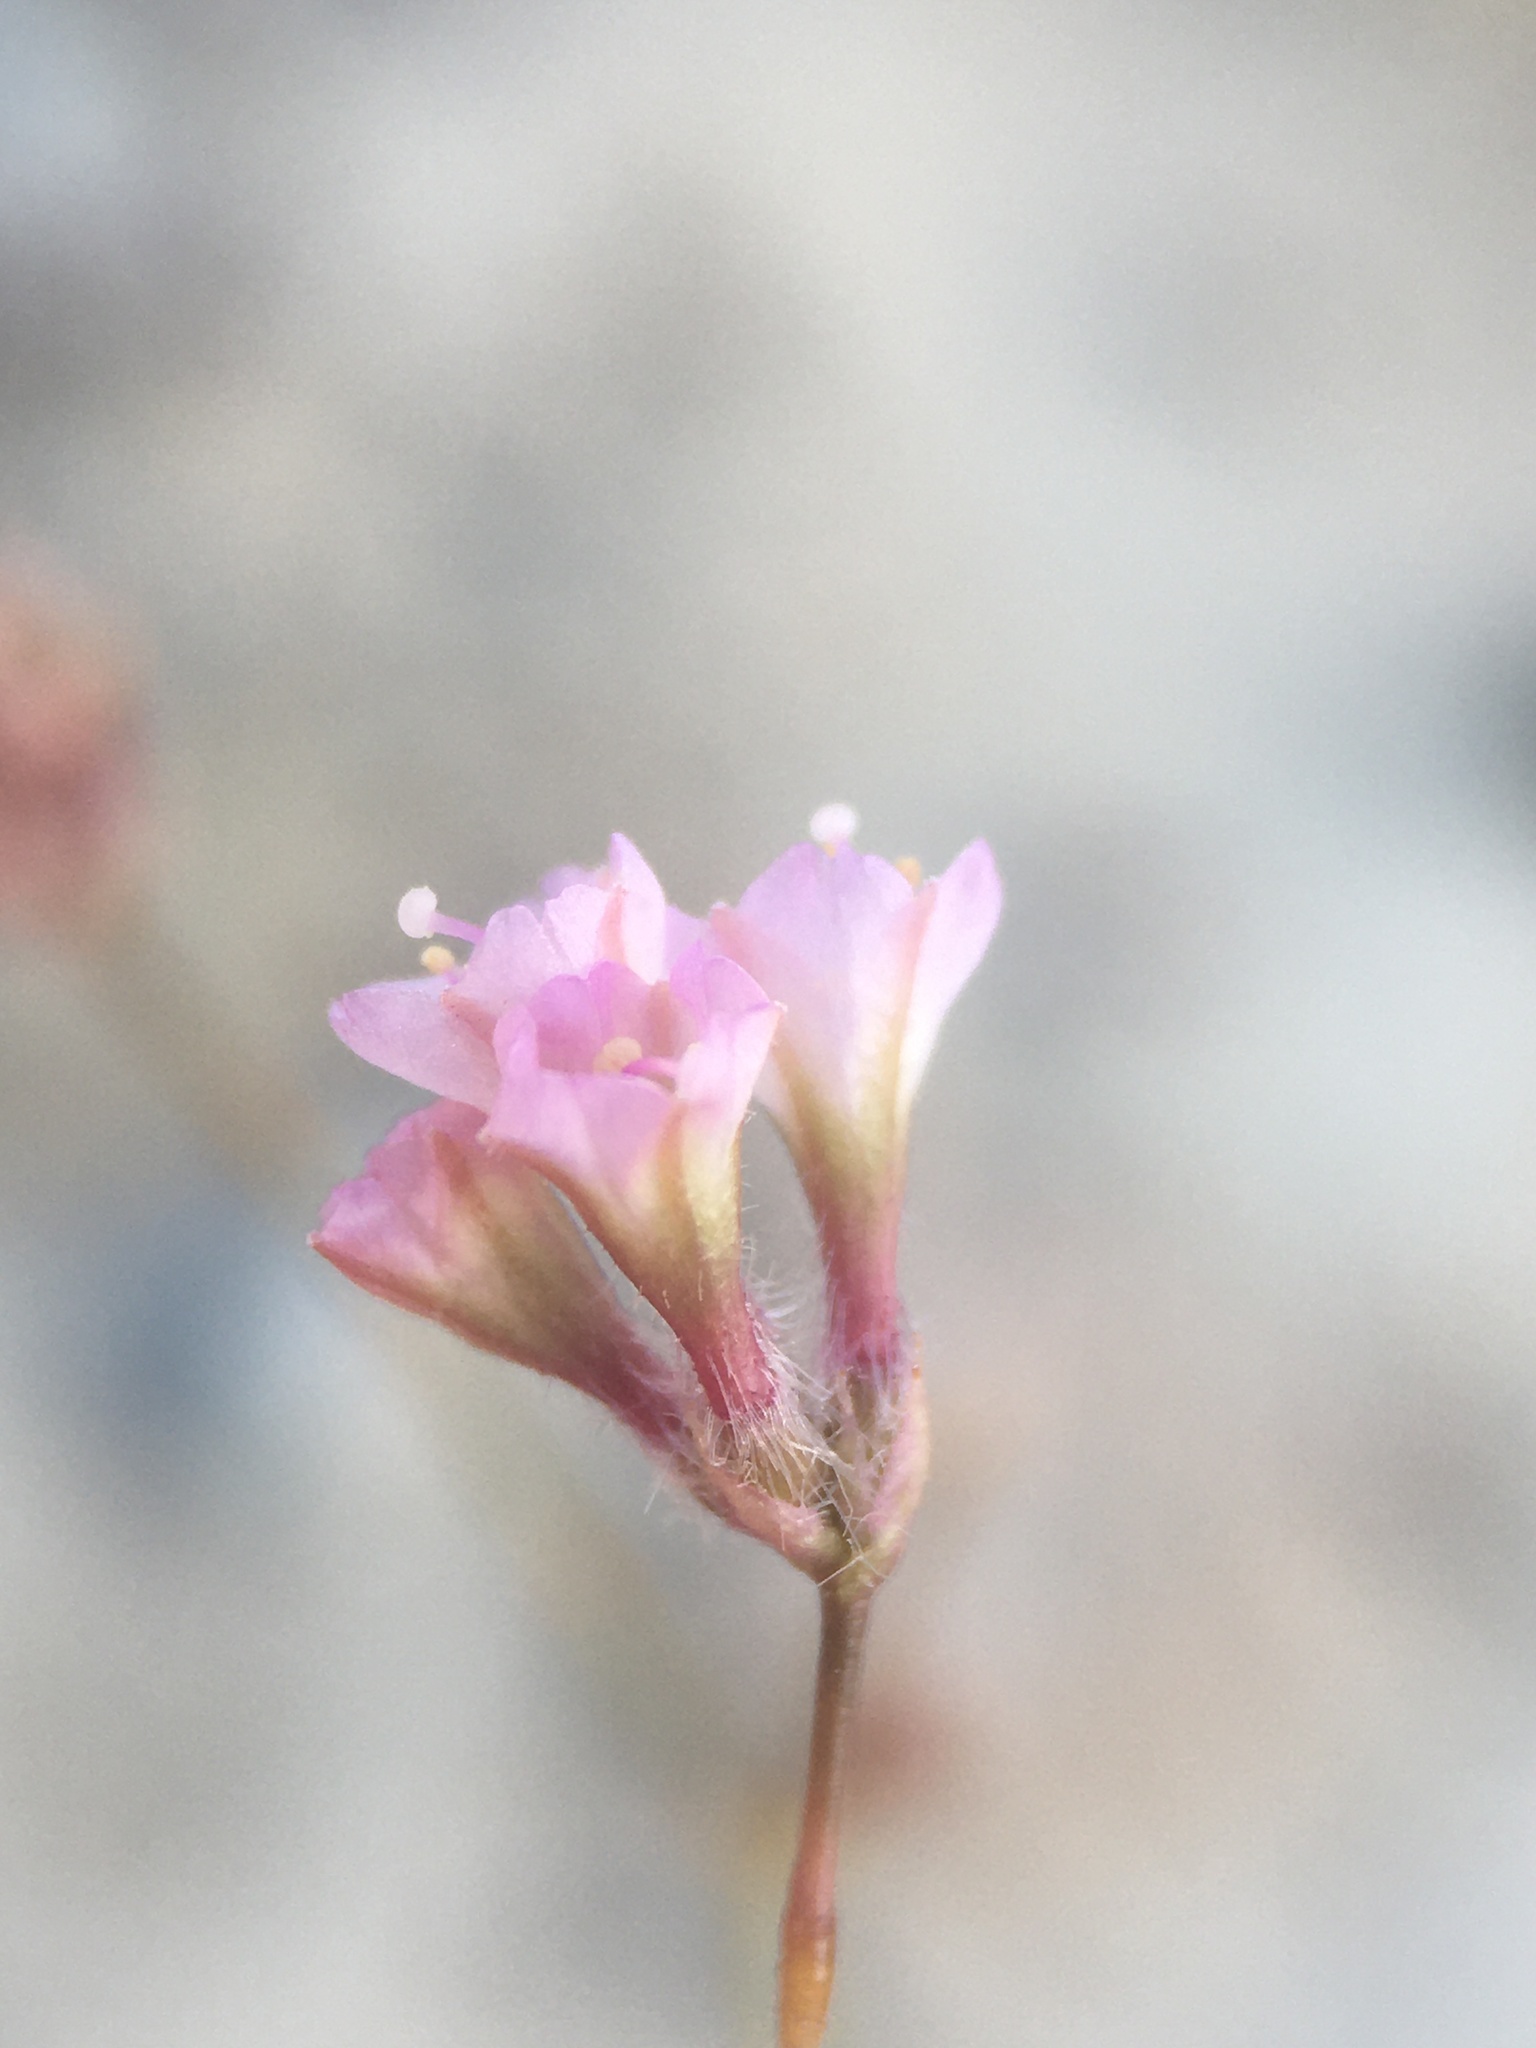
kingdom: Plantae
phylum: Tracheophyta
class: Magnoliopsida
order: Caryophyllales
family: Nyctaginaceae
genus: Anulocaulis
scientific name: Anulocaulis annulatus
